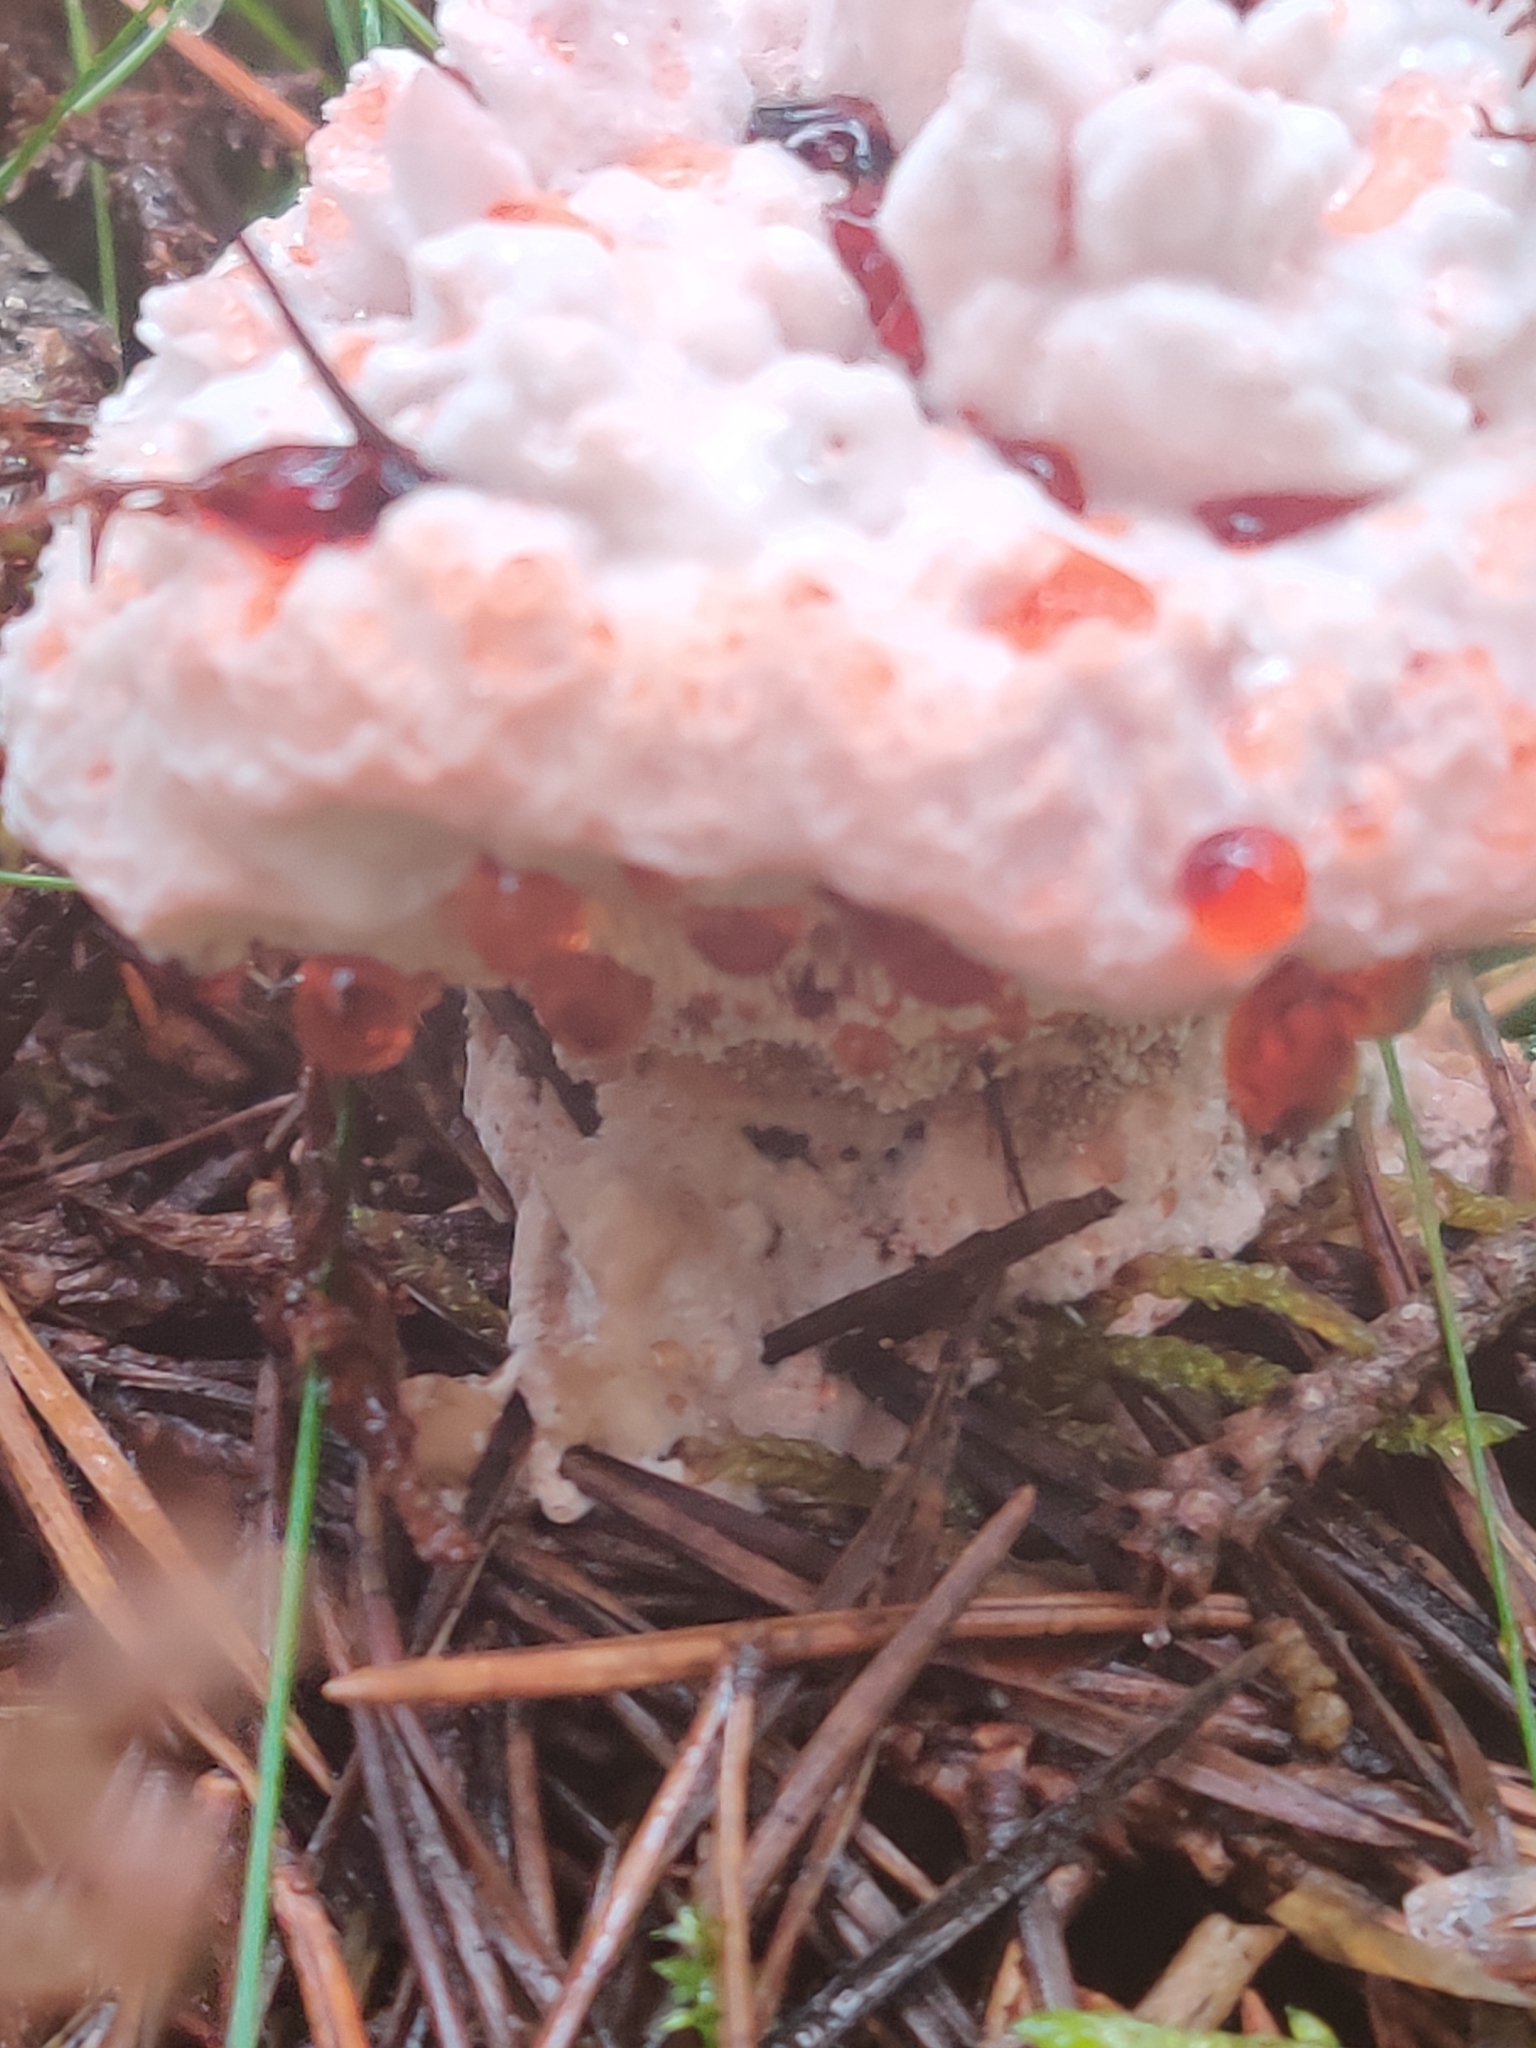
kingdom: Fungi
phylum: Basidiomycota
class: Agaricomycetes
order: Thelephorales
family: Bankeraceae
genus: Hydnellum
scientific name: Hydnellum peckii
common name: Devil's tooth
